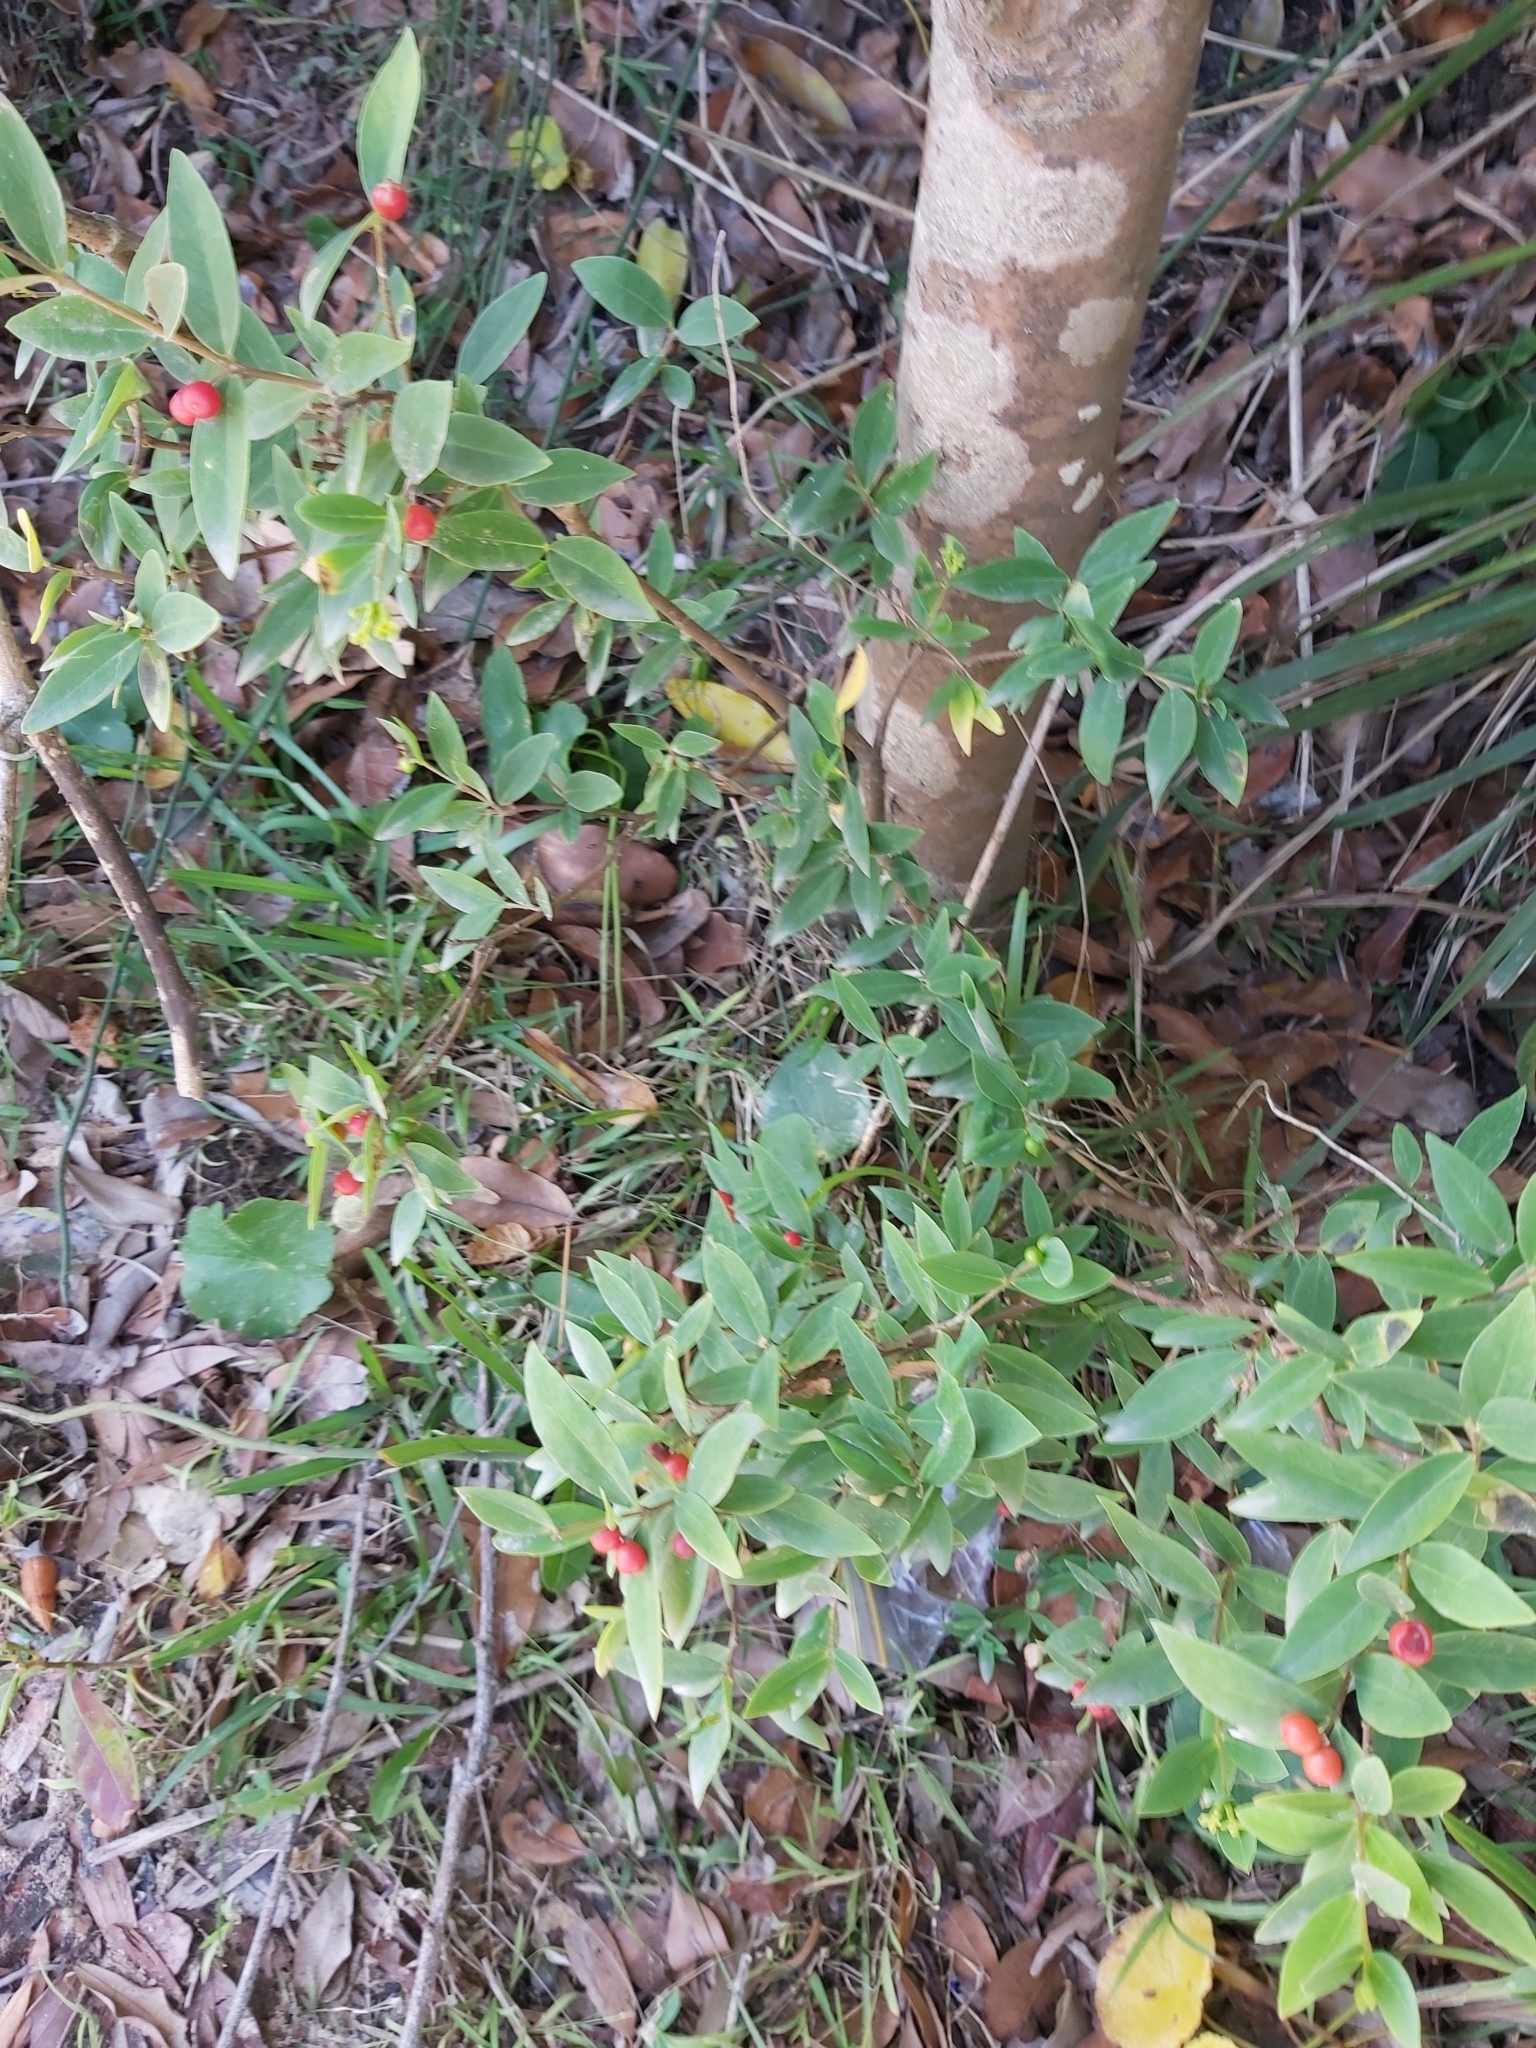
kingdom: Plantae
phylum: Tracheophyta
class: Magnoliopsida
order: Malvales
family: Thymelaeaceae
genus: Wikstroemia
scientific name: Wikstroemia indica
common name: Tiebush
